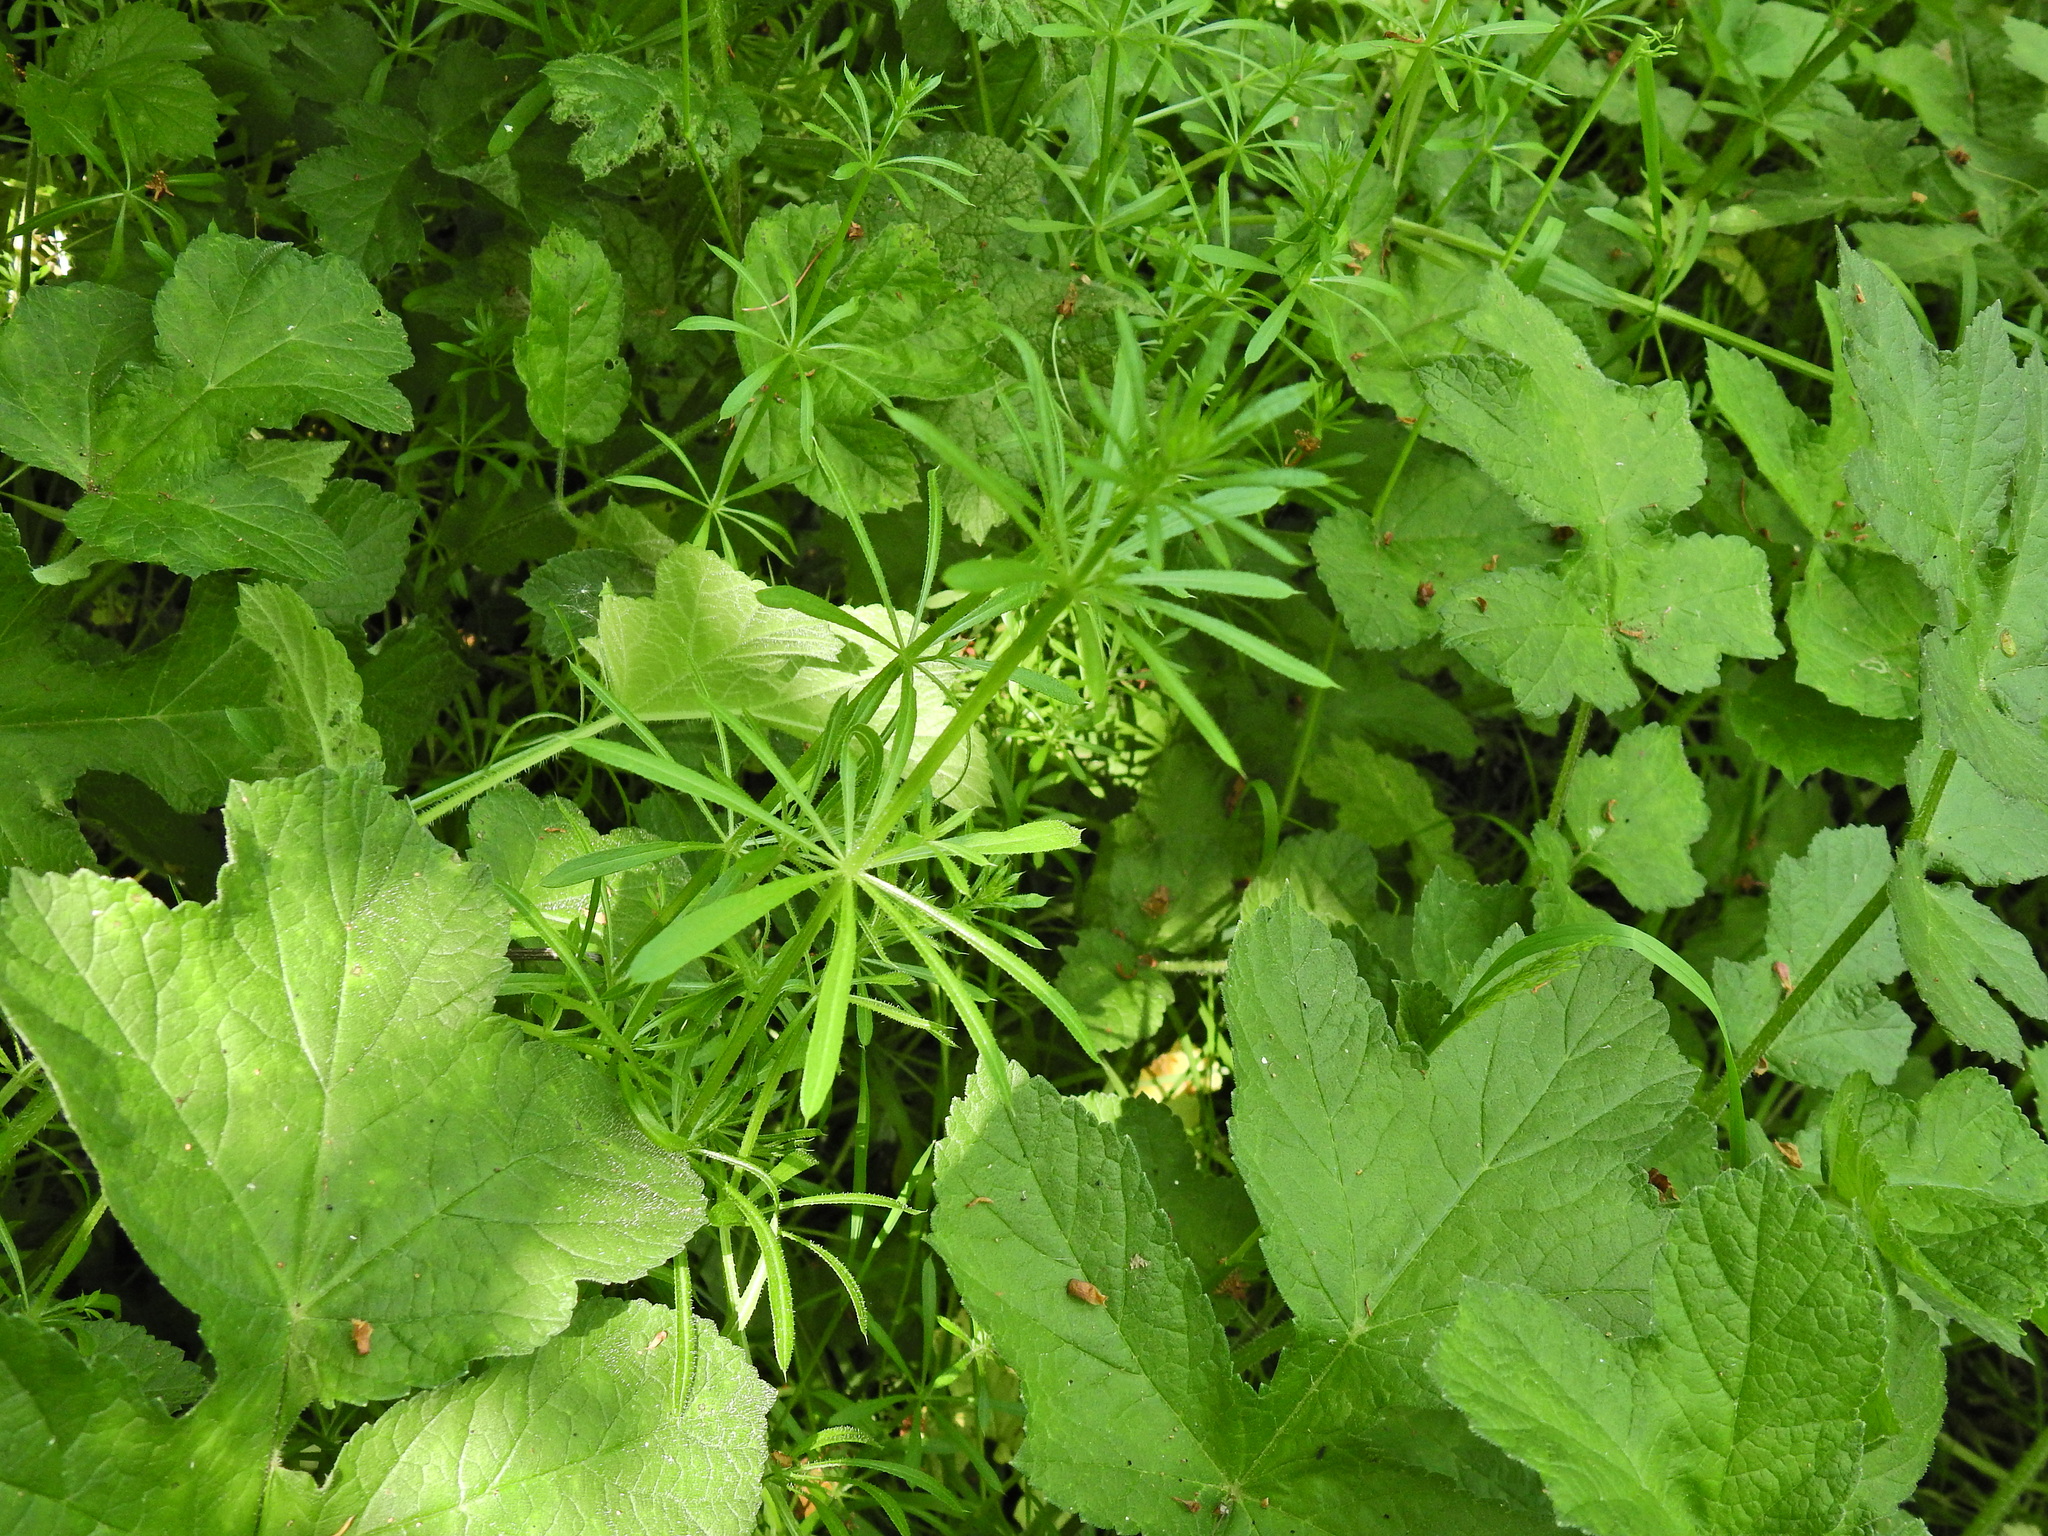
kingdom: Plantae
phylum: Tracheophyta
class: Magnoliopsida
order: Gentianales
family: Rubiaceae
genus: Galium
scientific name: Galium aparine
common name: Cleavers
